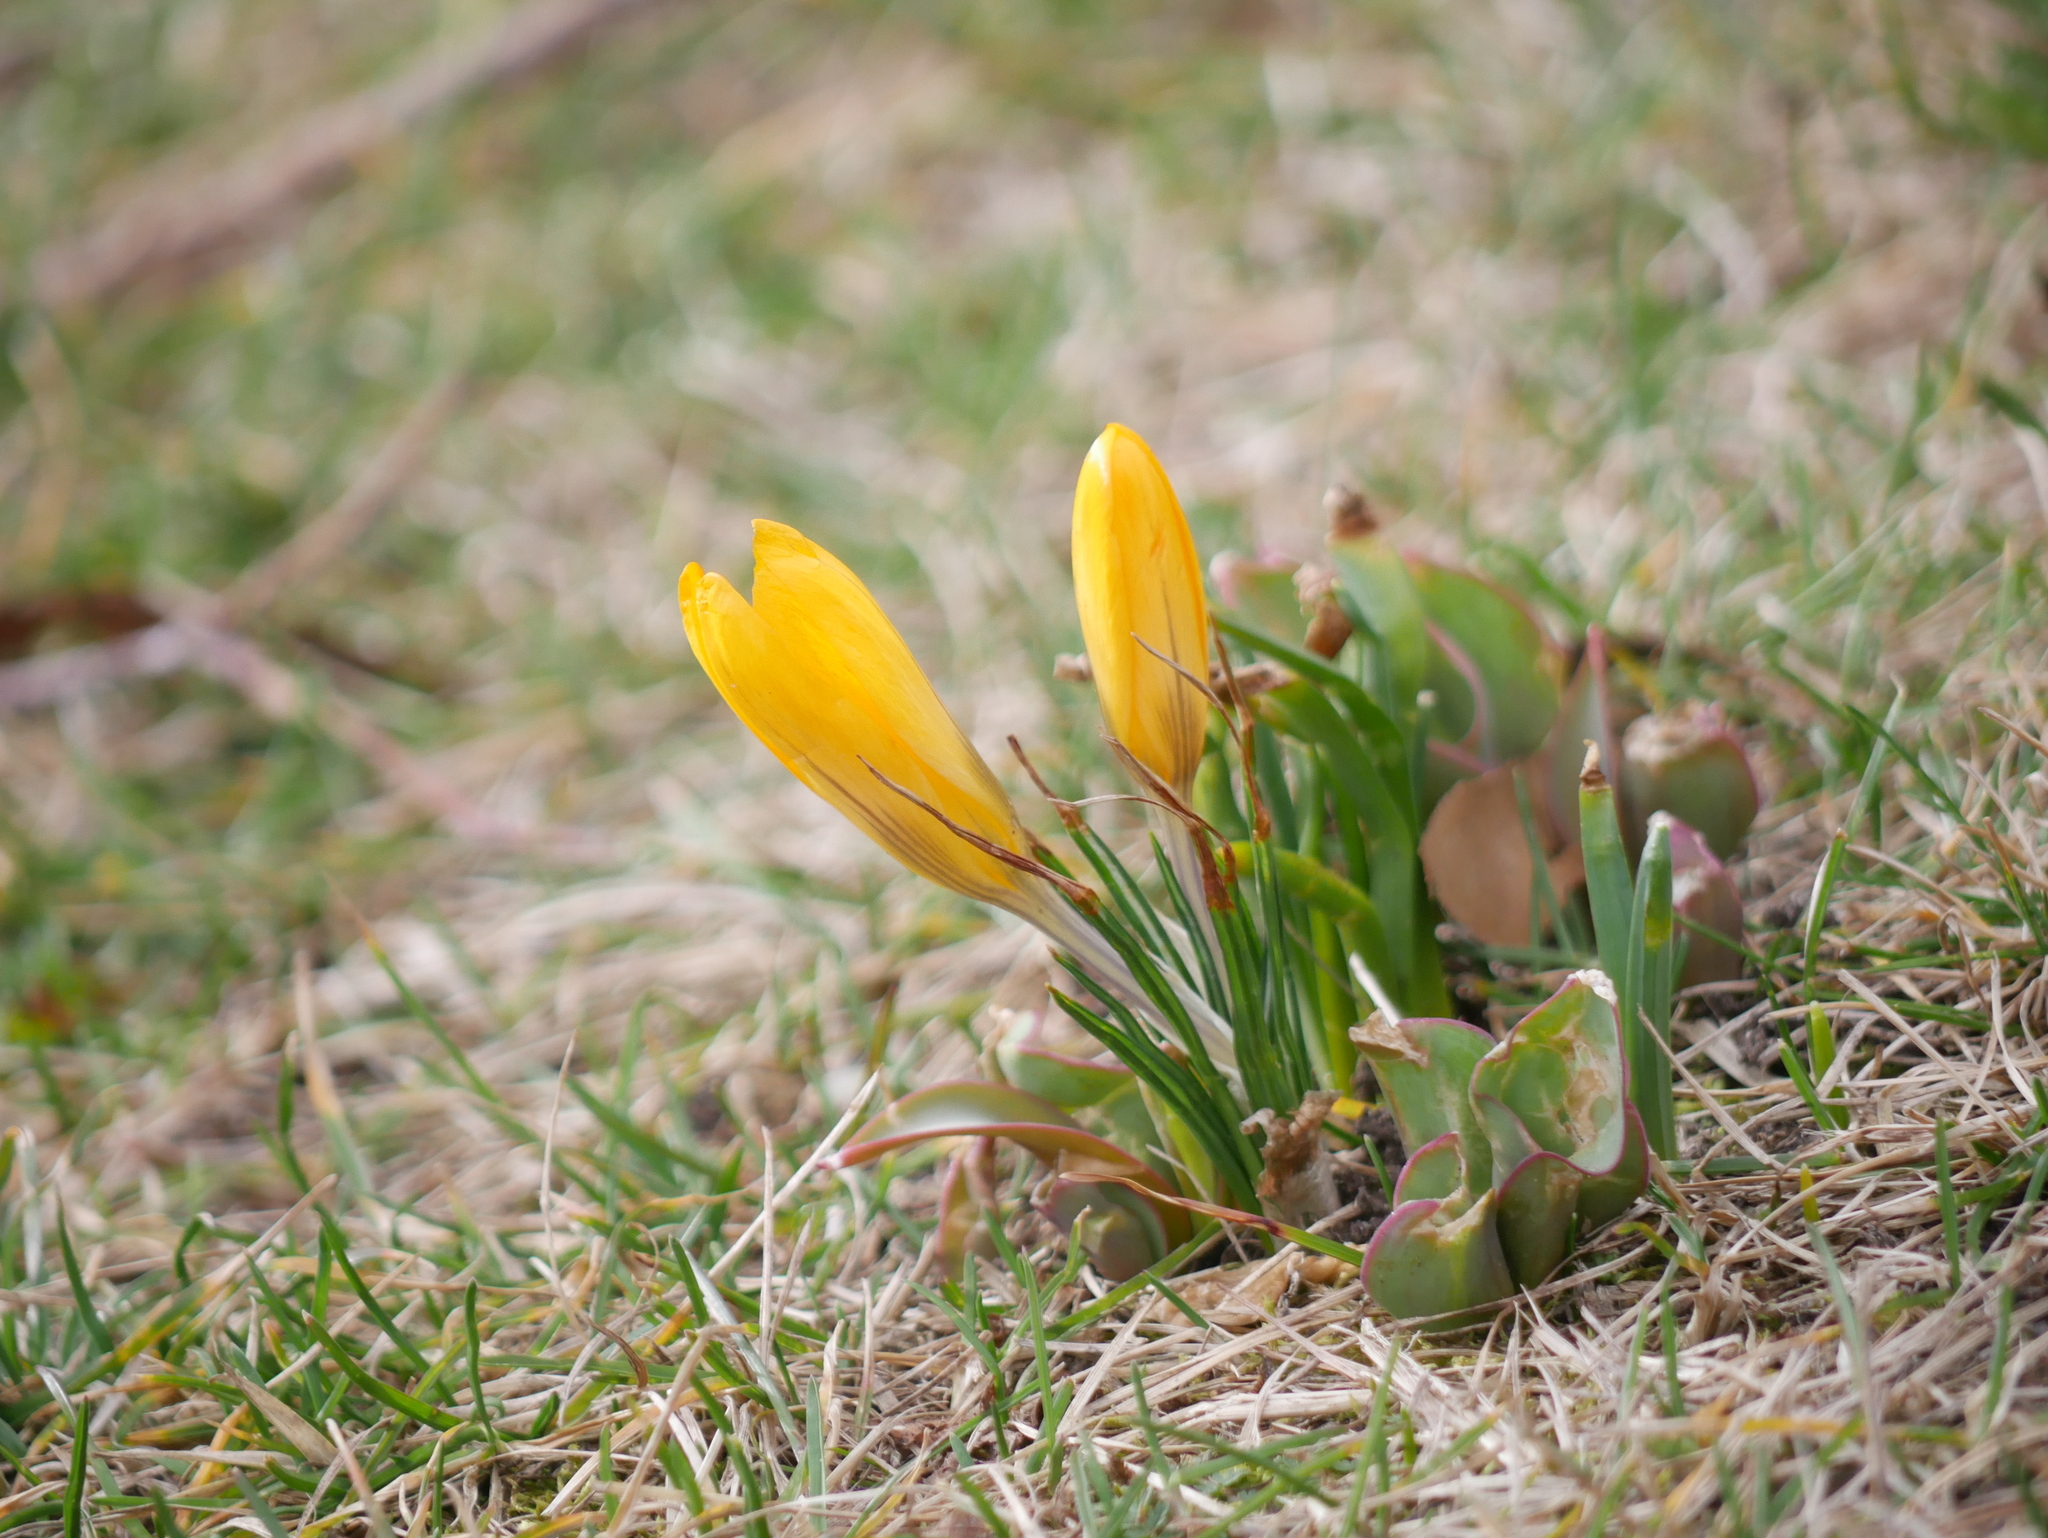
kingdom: Plantae
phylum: Tracheophyta
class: Liliopsida
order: Asparagales
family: Iridaceae
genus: Crocus
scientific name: Crocus luteus
